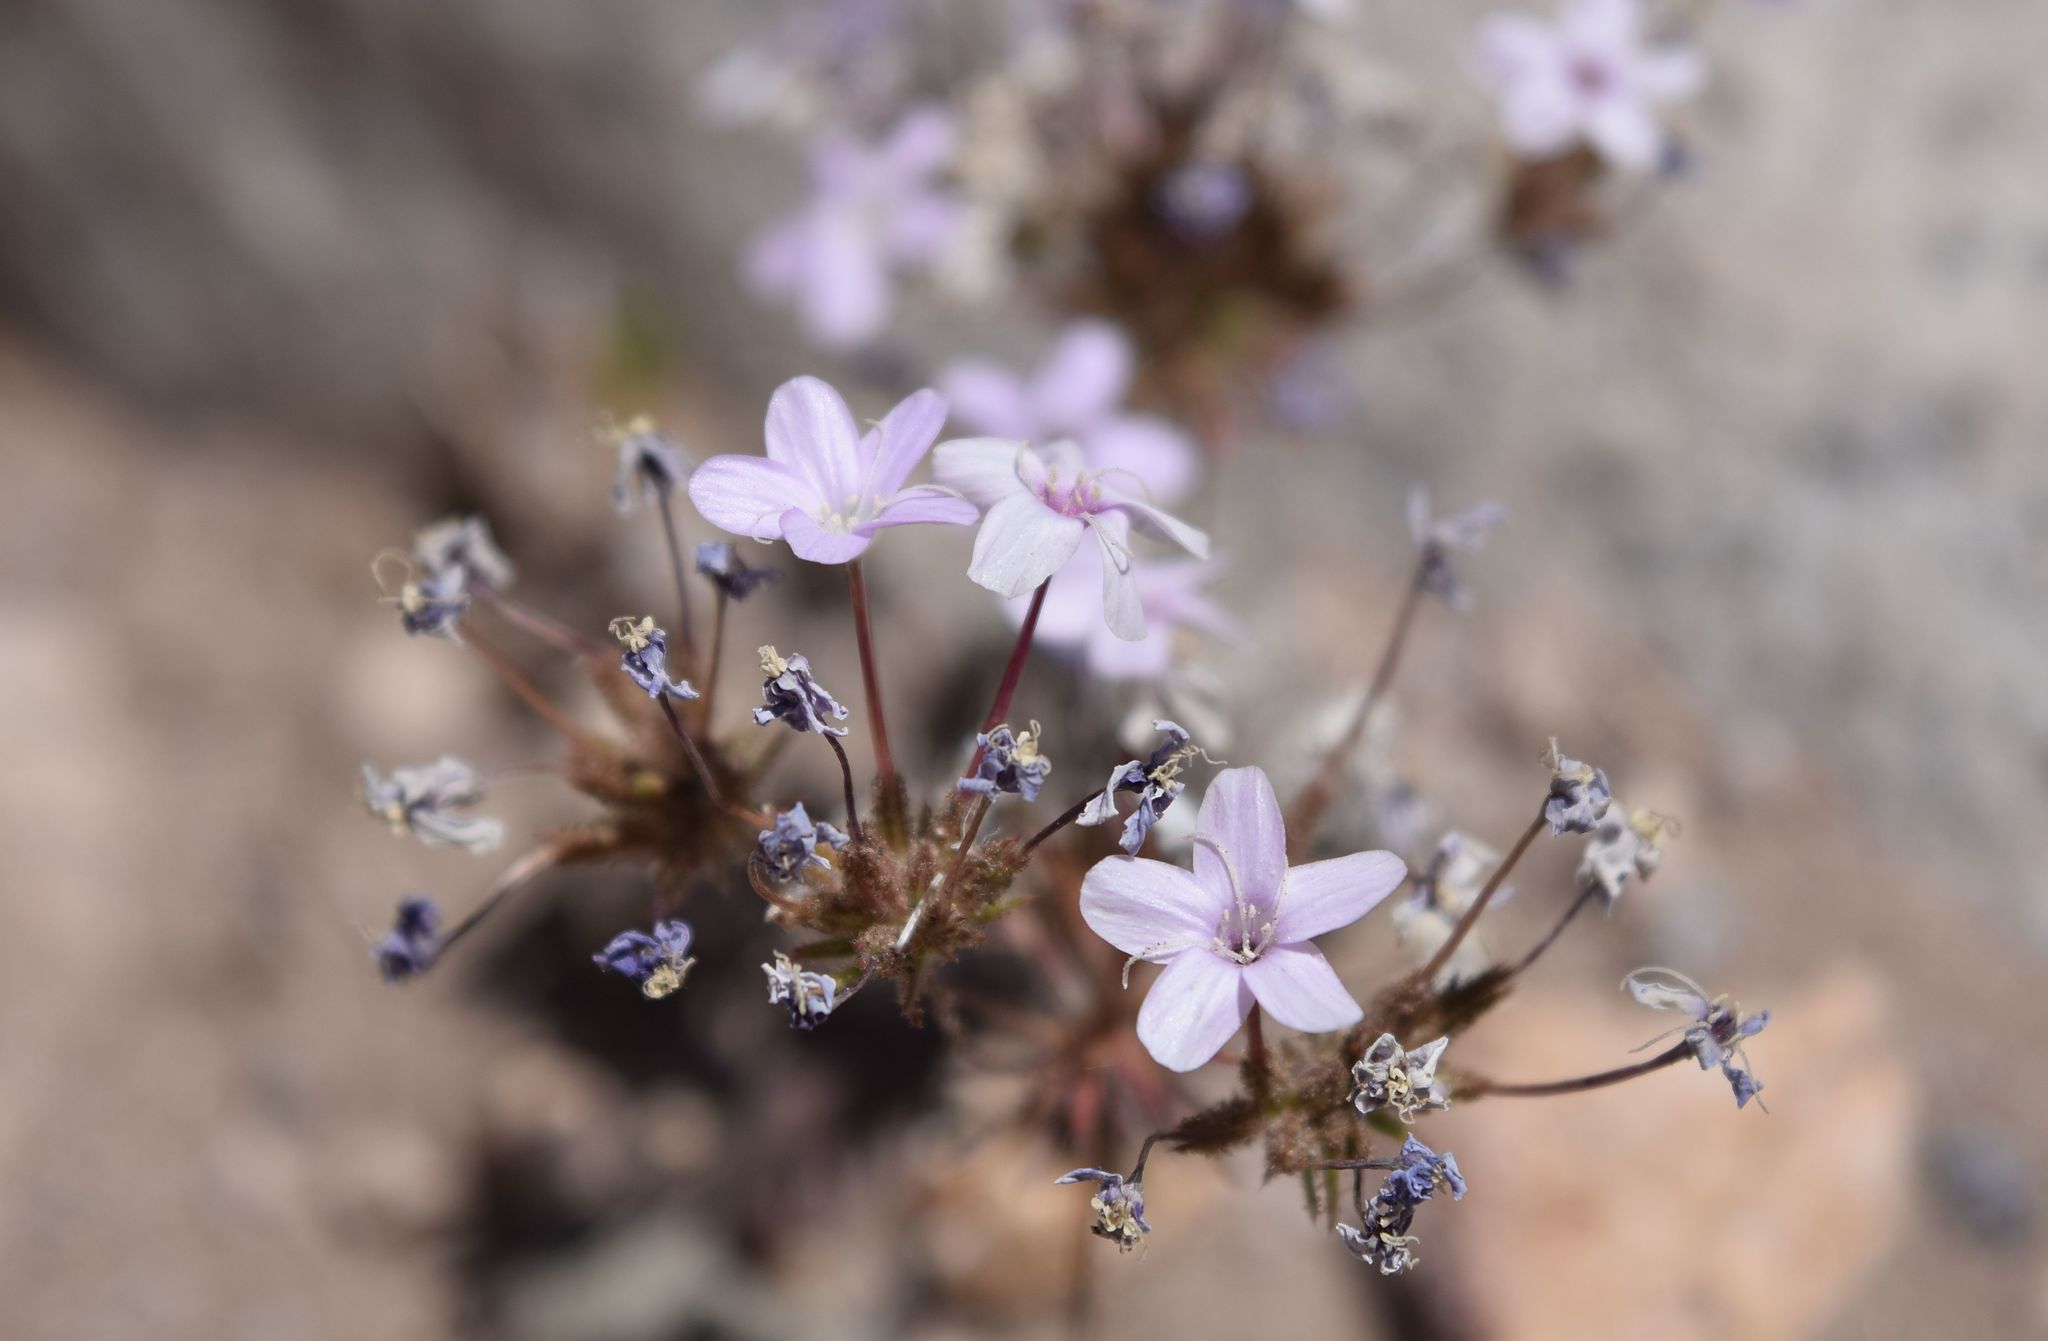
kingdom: Plantae
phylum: Tracheophyta
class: Magnoliopsida
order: Ericales
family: Polemoniaceae
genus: Leptosiphon
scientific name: Leptosiphon breviculus
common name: Mojave linanthus
